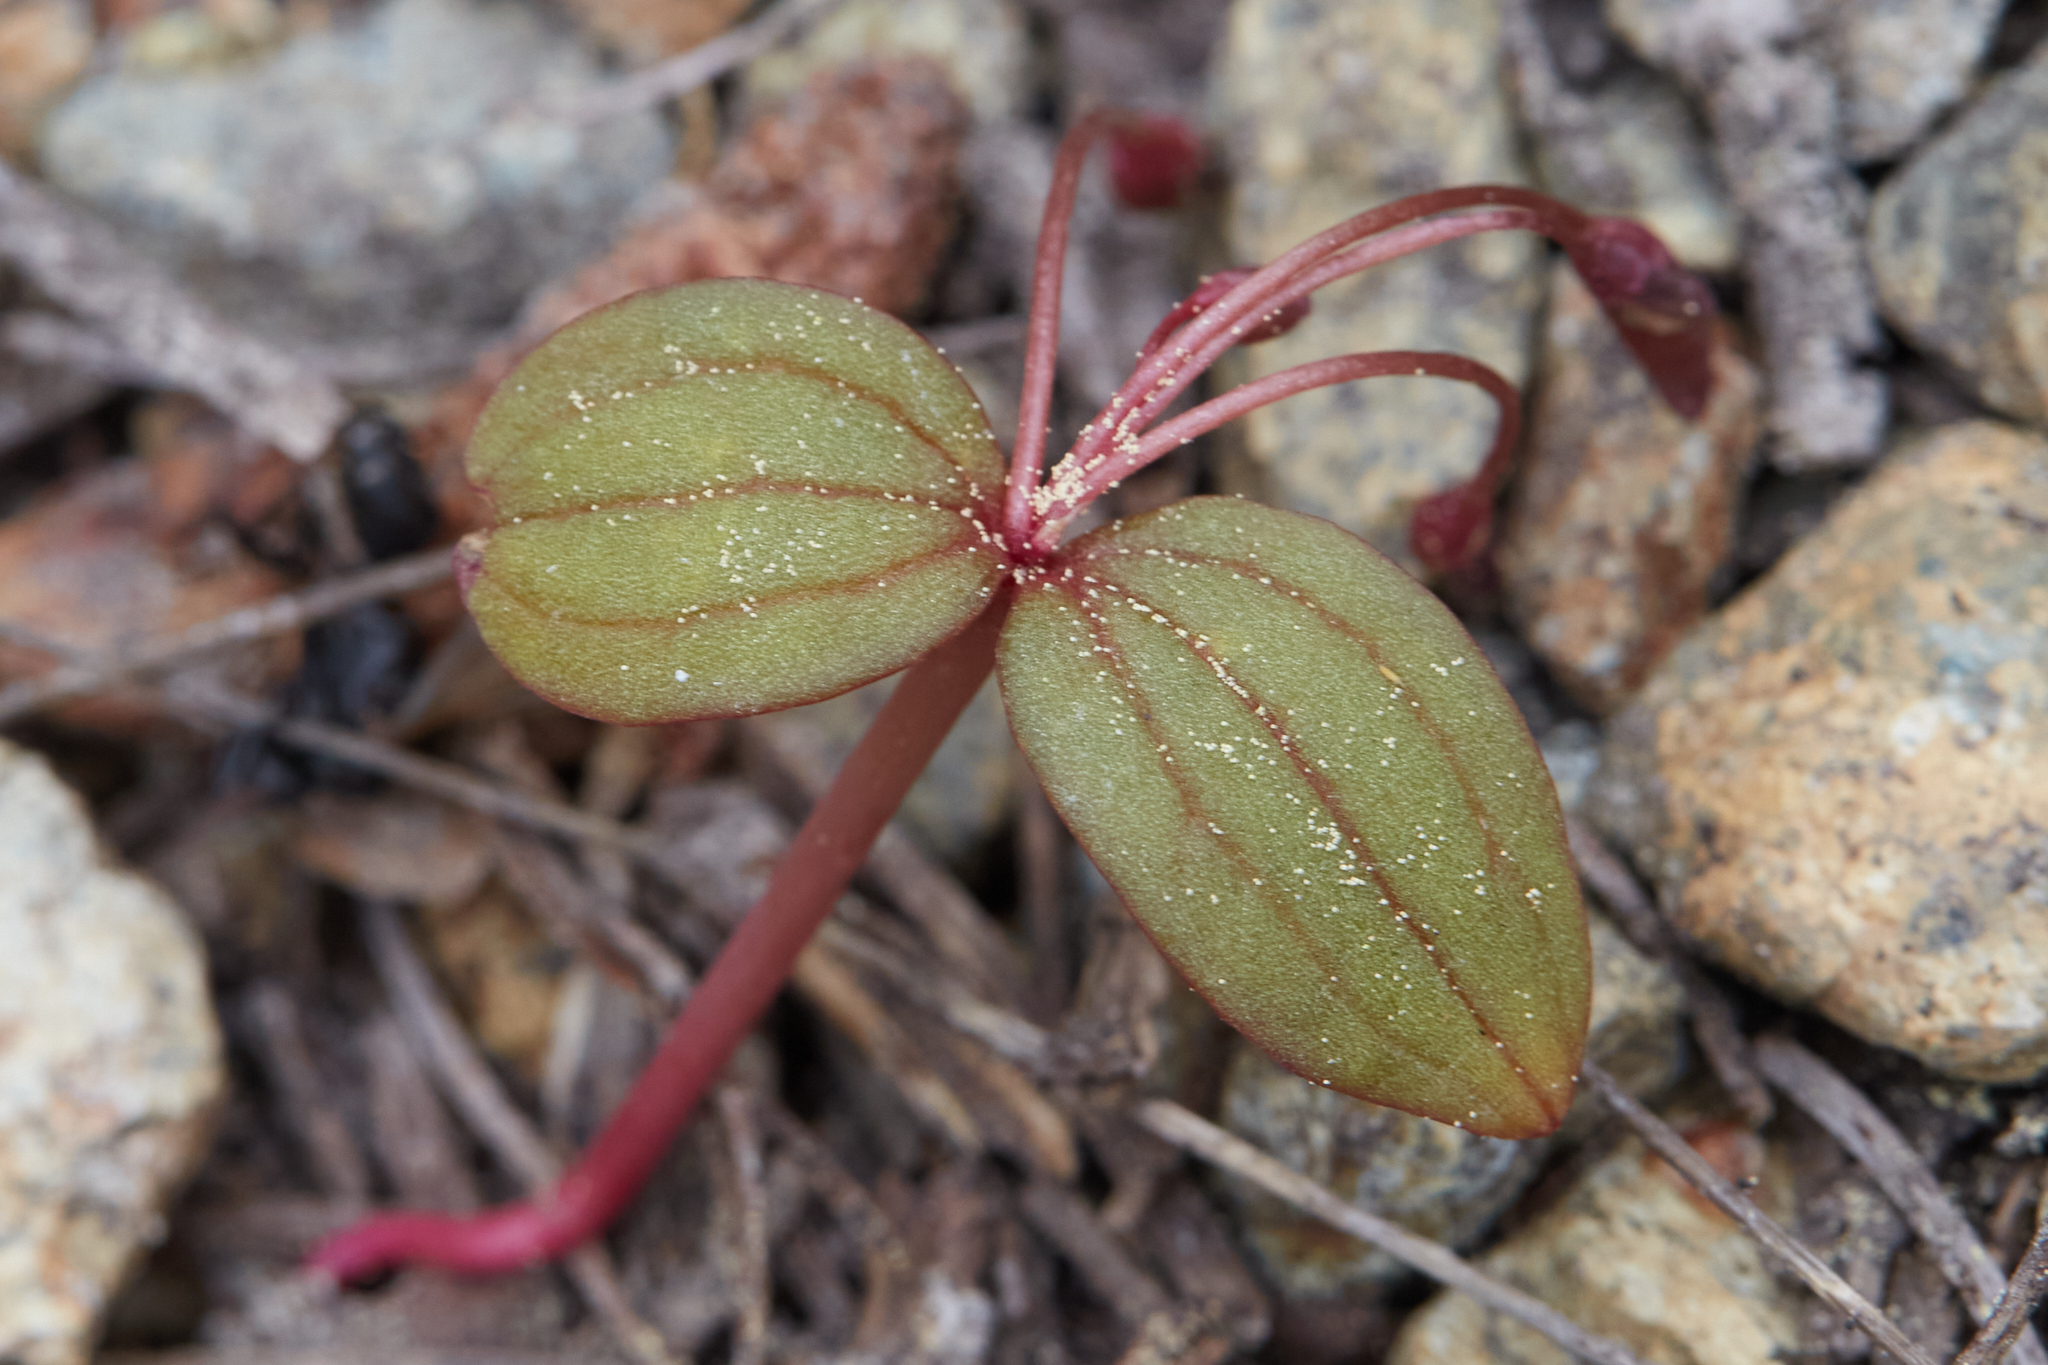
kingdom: Plantae
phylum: Tracheophyta
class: Magnoliopsida
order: Caryophyllales
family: Montiaceae
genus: Claytonia
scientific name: Claytonia obovata
